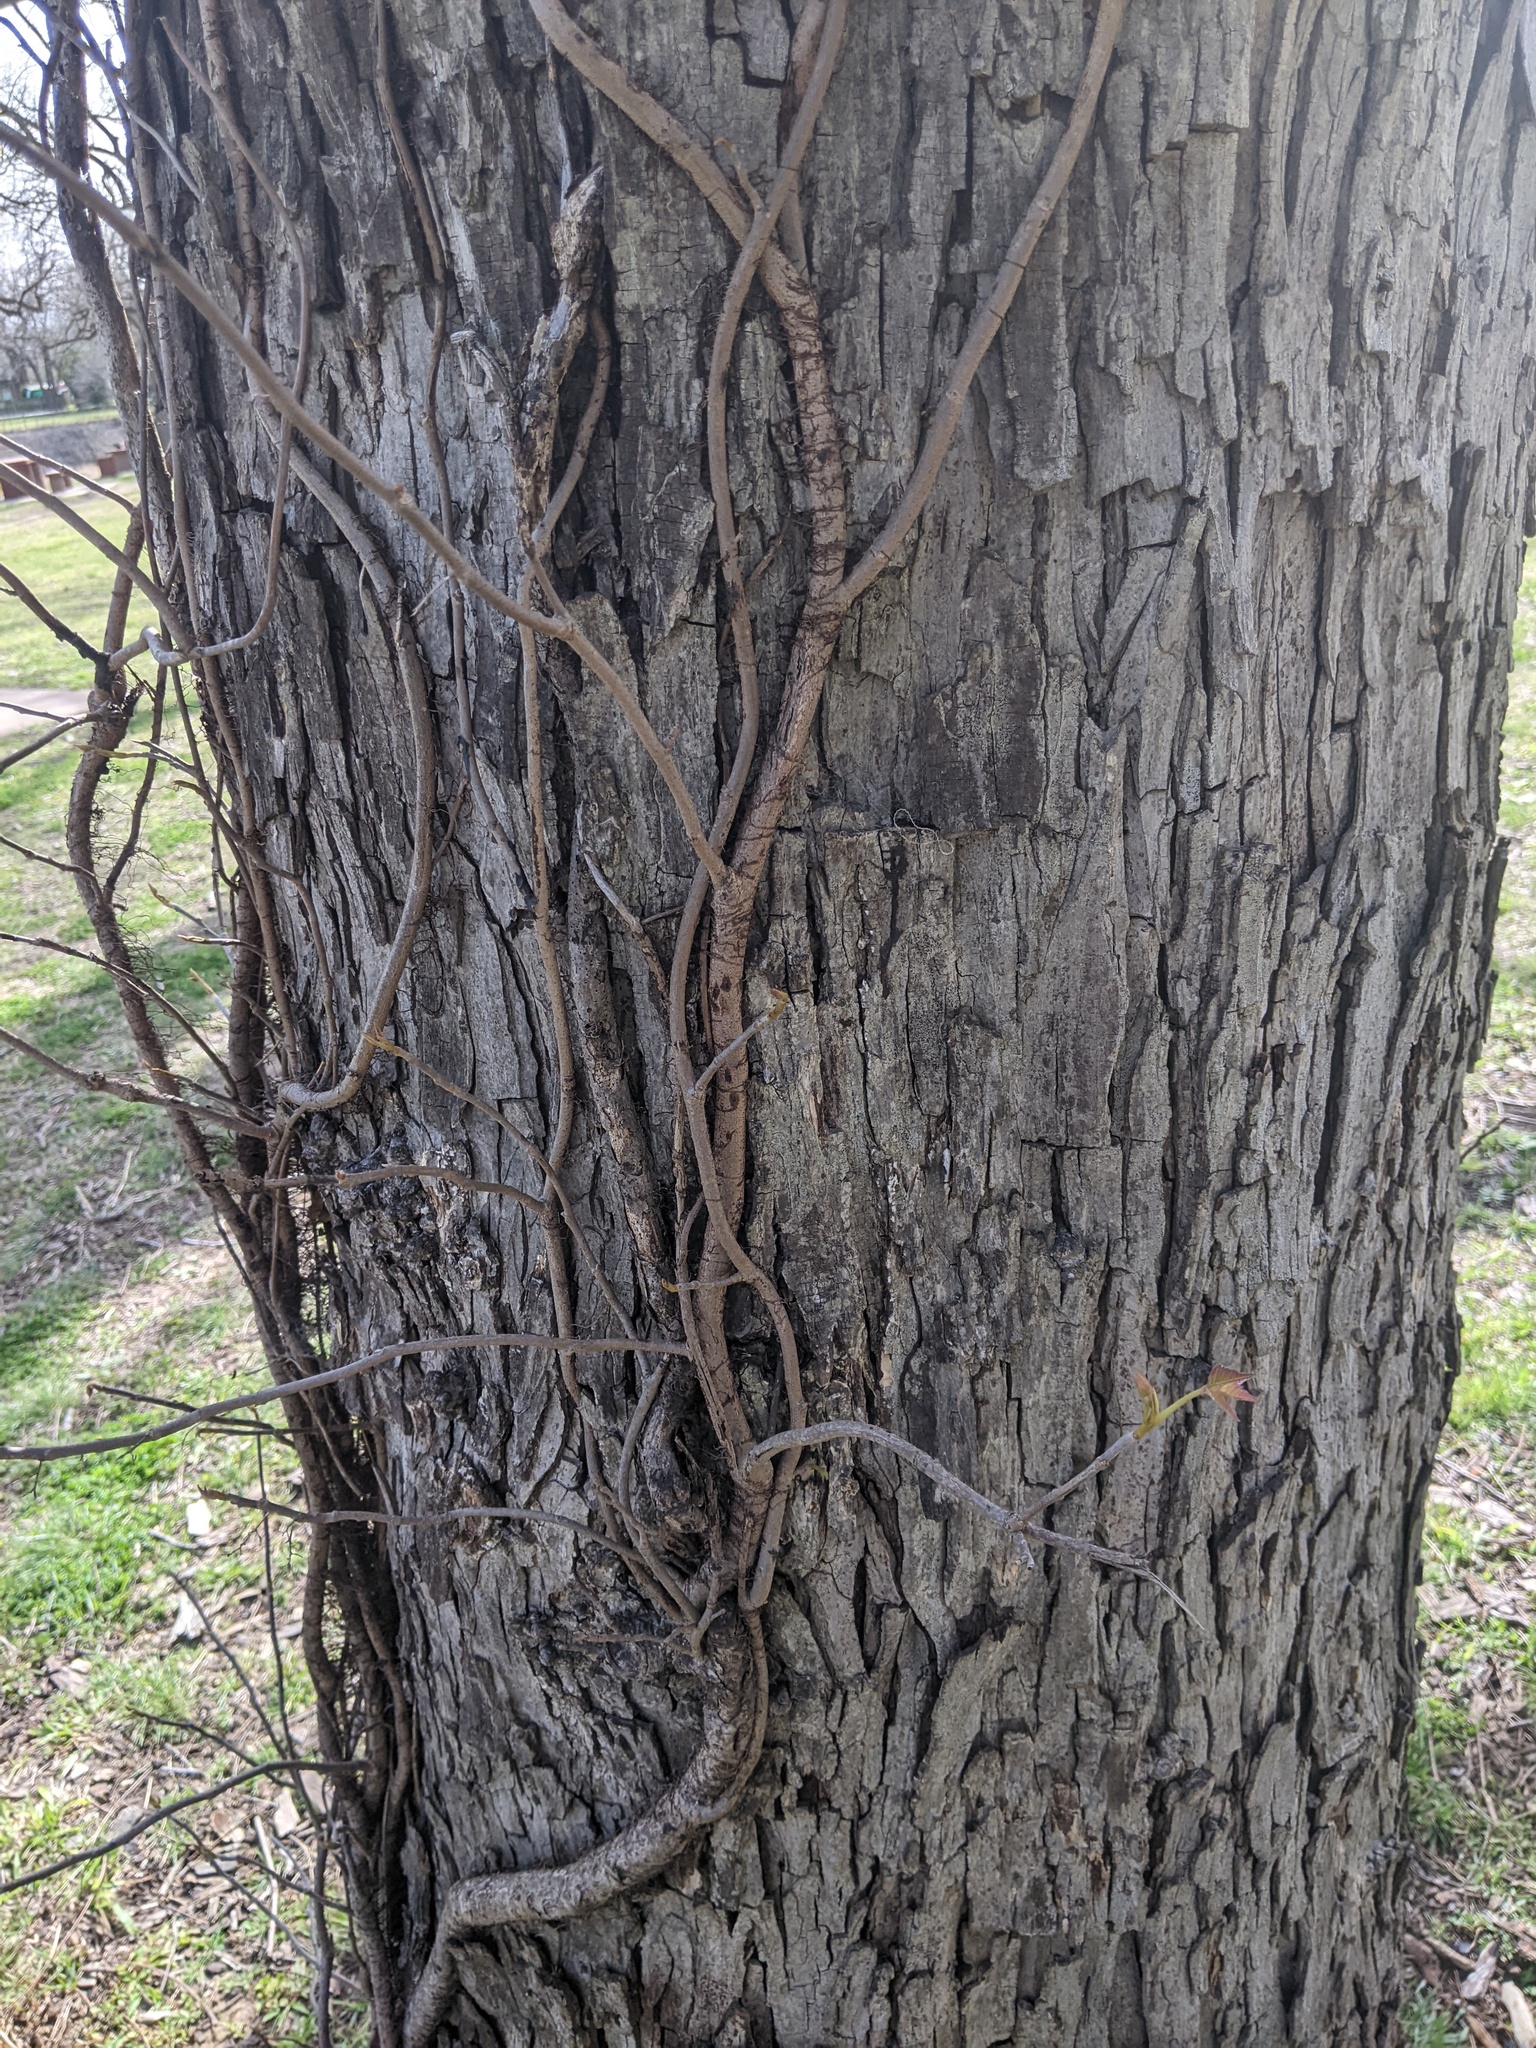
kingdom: Plantae
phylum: Tracheophyta
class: Magnoliopsida
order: Sapindales
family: Anacardiaceae
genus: Toxicodendron
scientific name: Toxicodendron radicans
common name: Poison ivy
